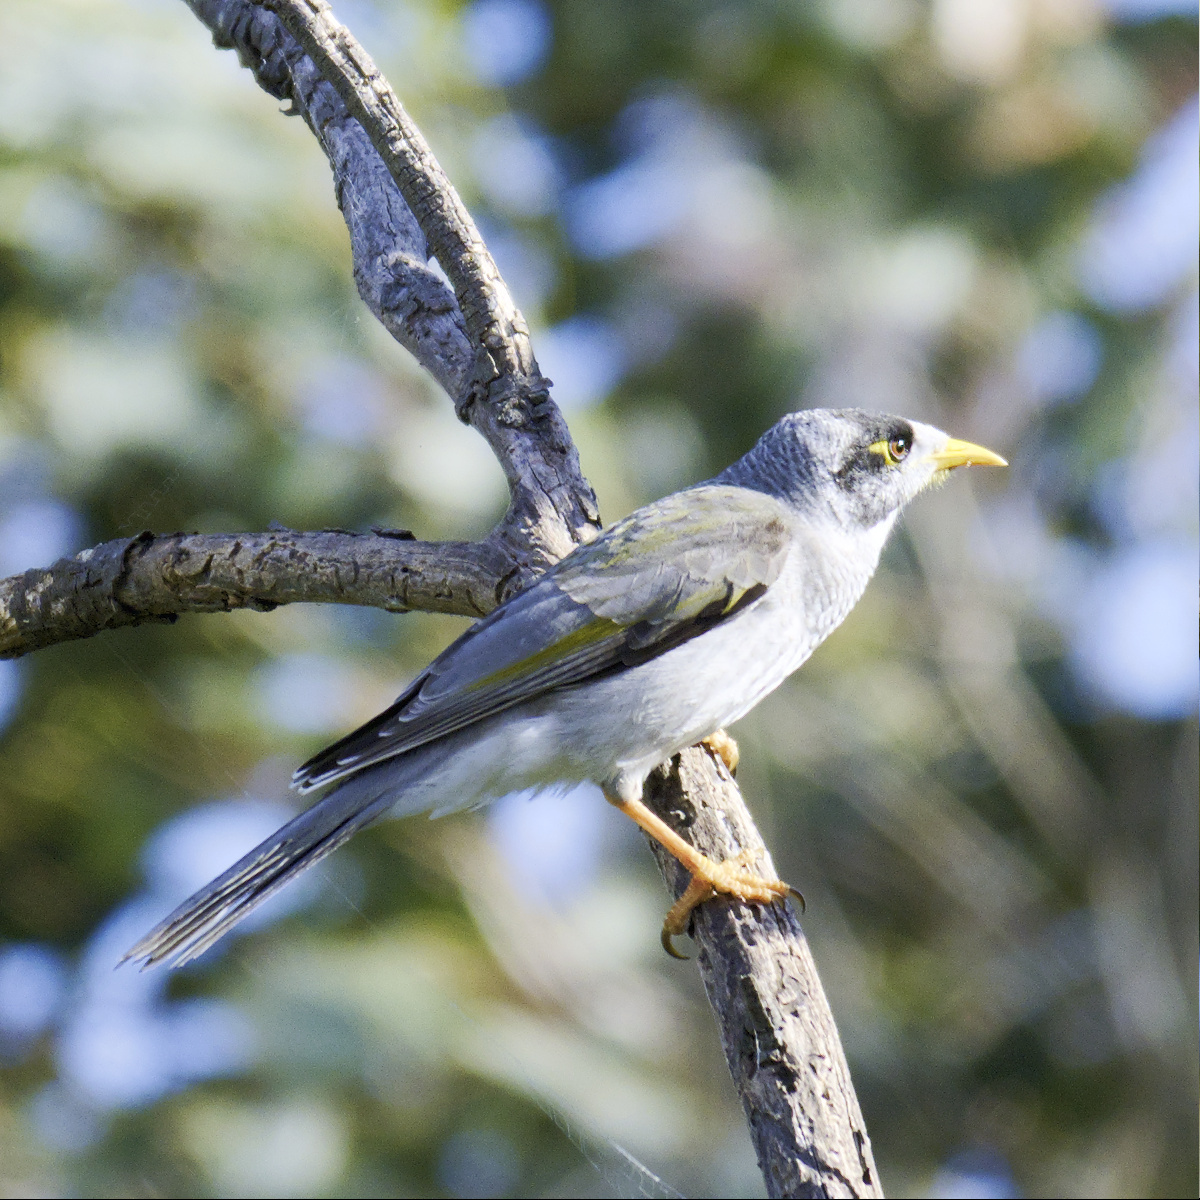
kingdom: Animalia
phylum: Chordata
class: Aves
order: Passeriformes
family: Meliphagidae
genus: Manorina
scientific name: Manorina melanocephala
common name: Noisy miner
